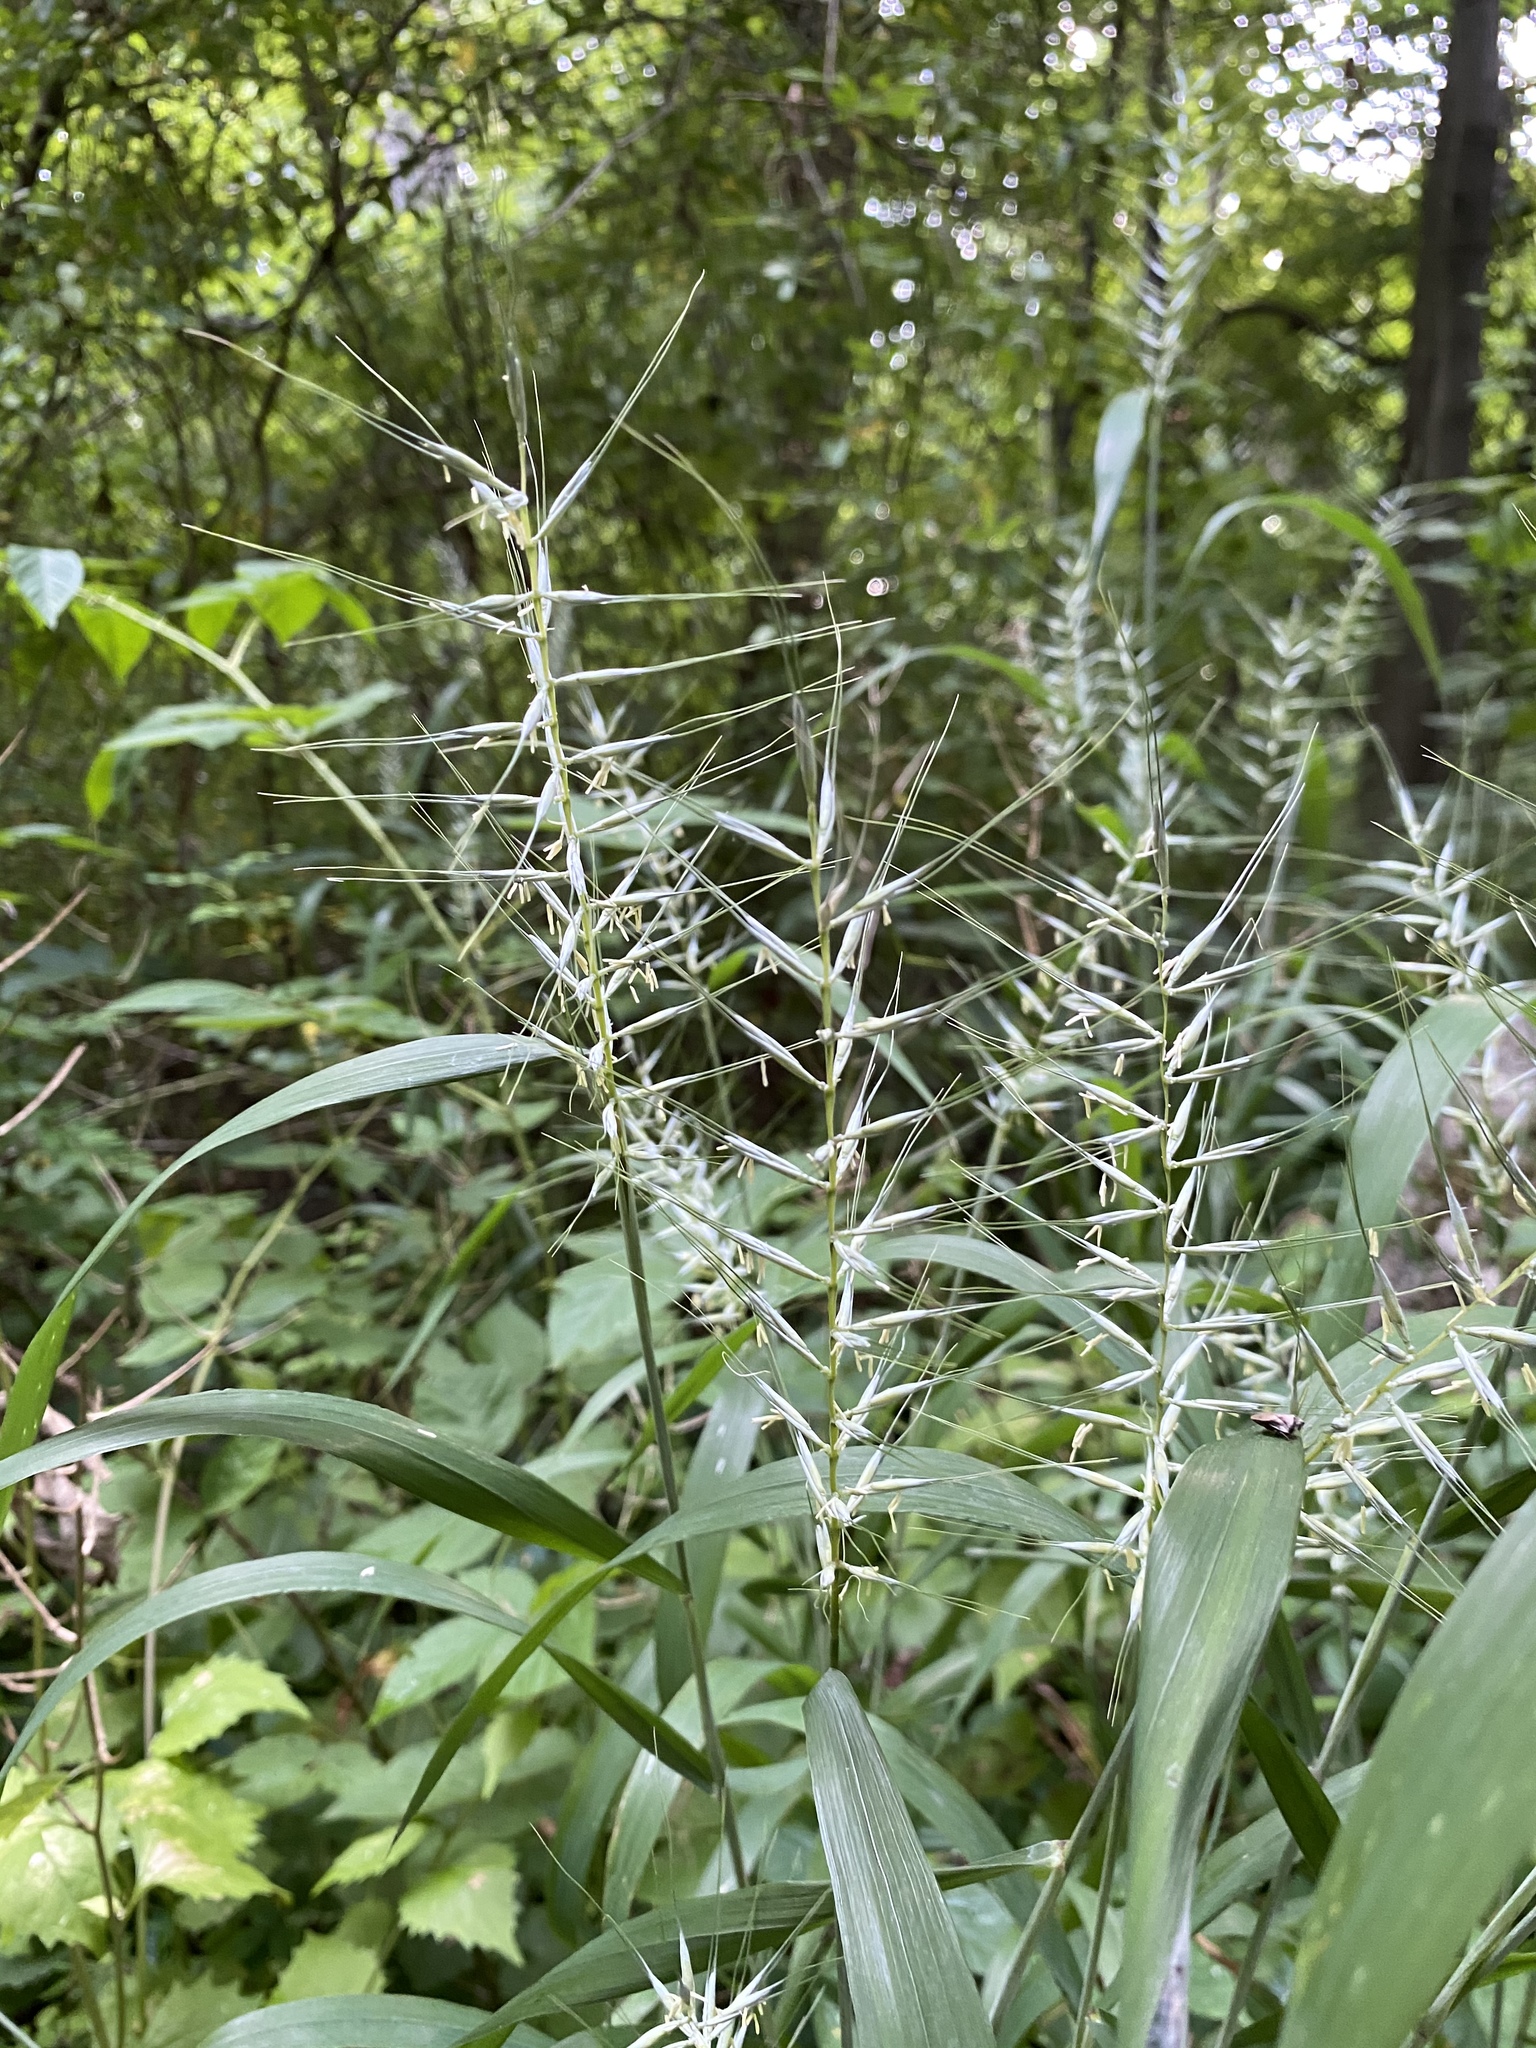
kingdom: Plantae
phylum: Tracheophyta
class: Liliopsida
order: Poales
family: Poaceae
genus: Elymus
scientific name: Elymus hystrix
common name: Bottlebrush grass
